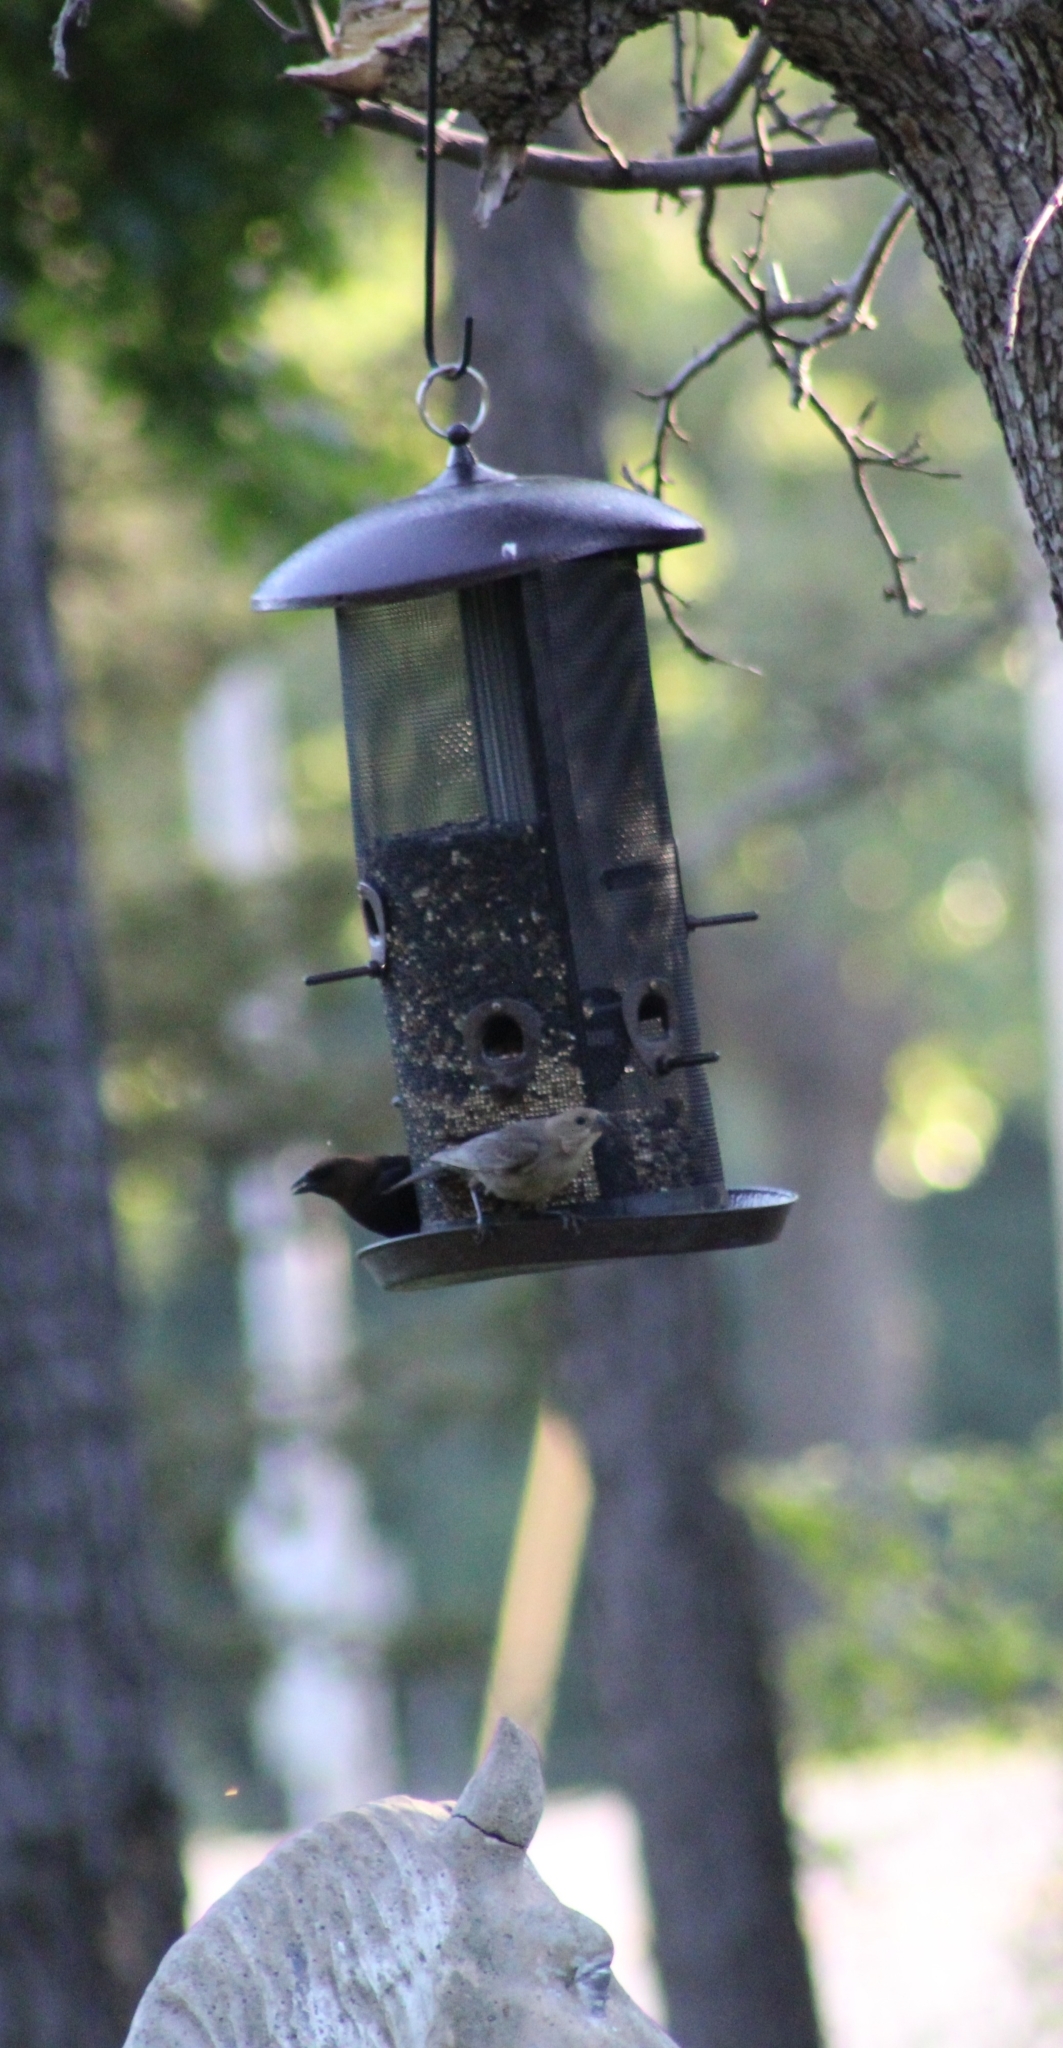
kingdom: Animalia
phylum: Chordata
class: Aves
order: Passeriformes
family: Icteridae
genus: Molothrus
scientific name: Molothrus ater
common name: Brown-headed cowbird
